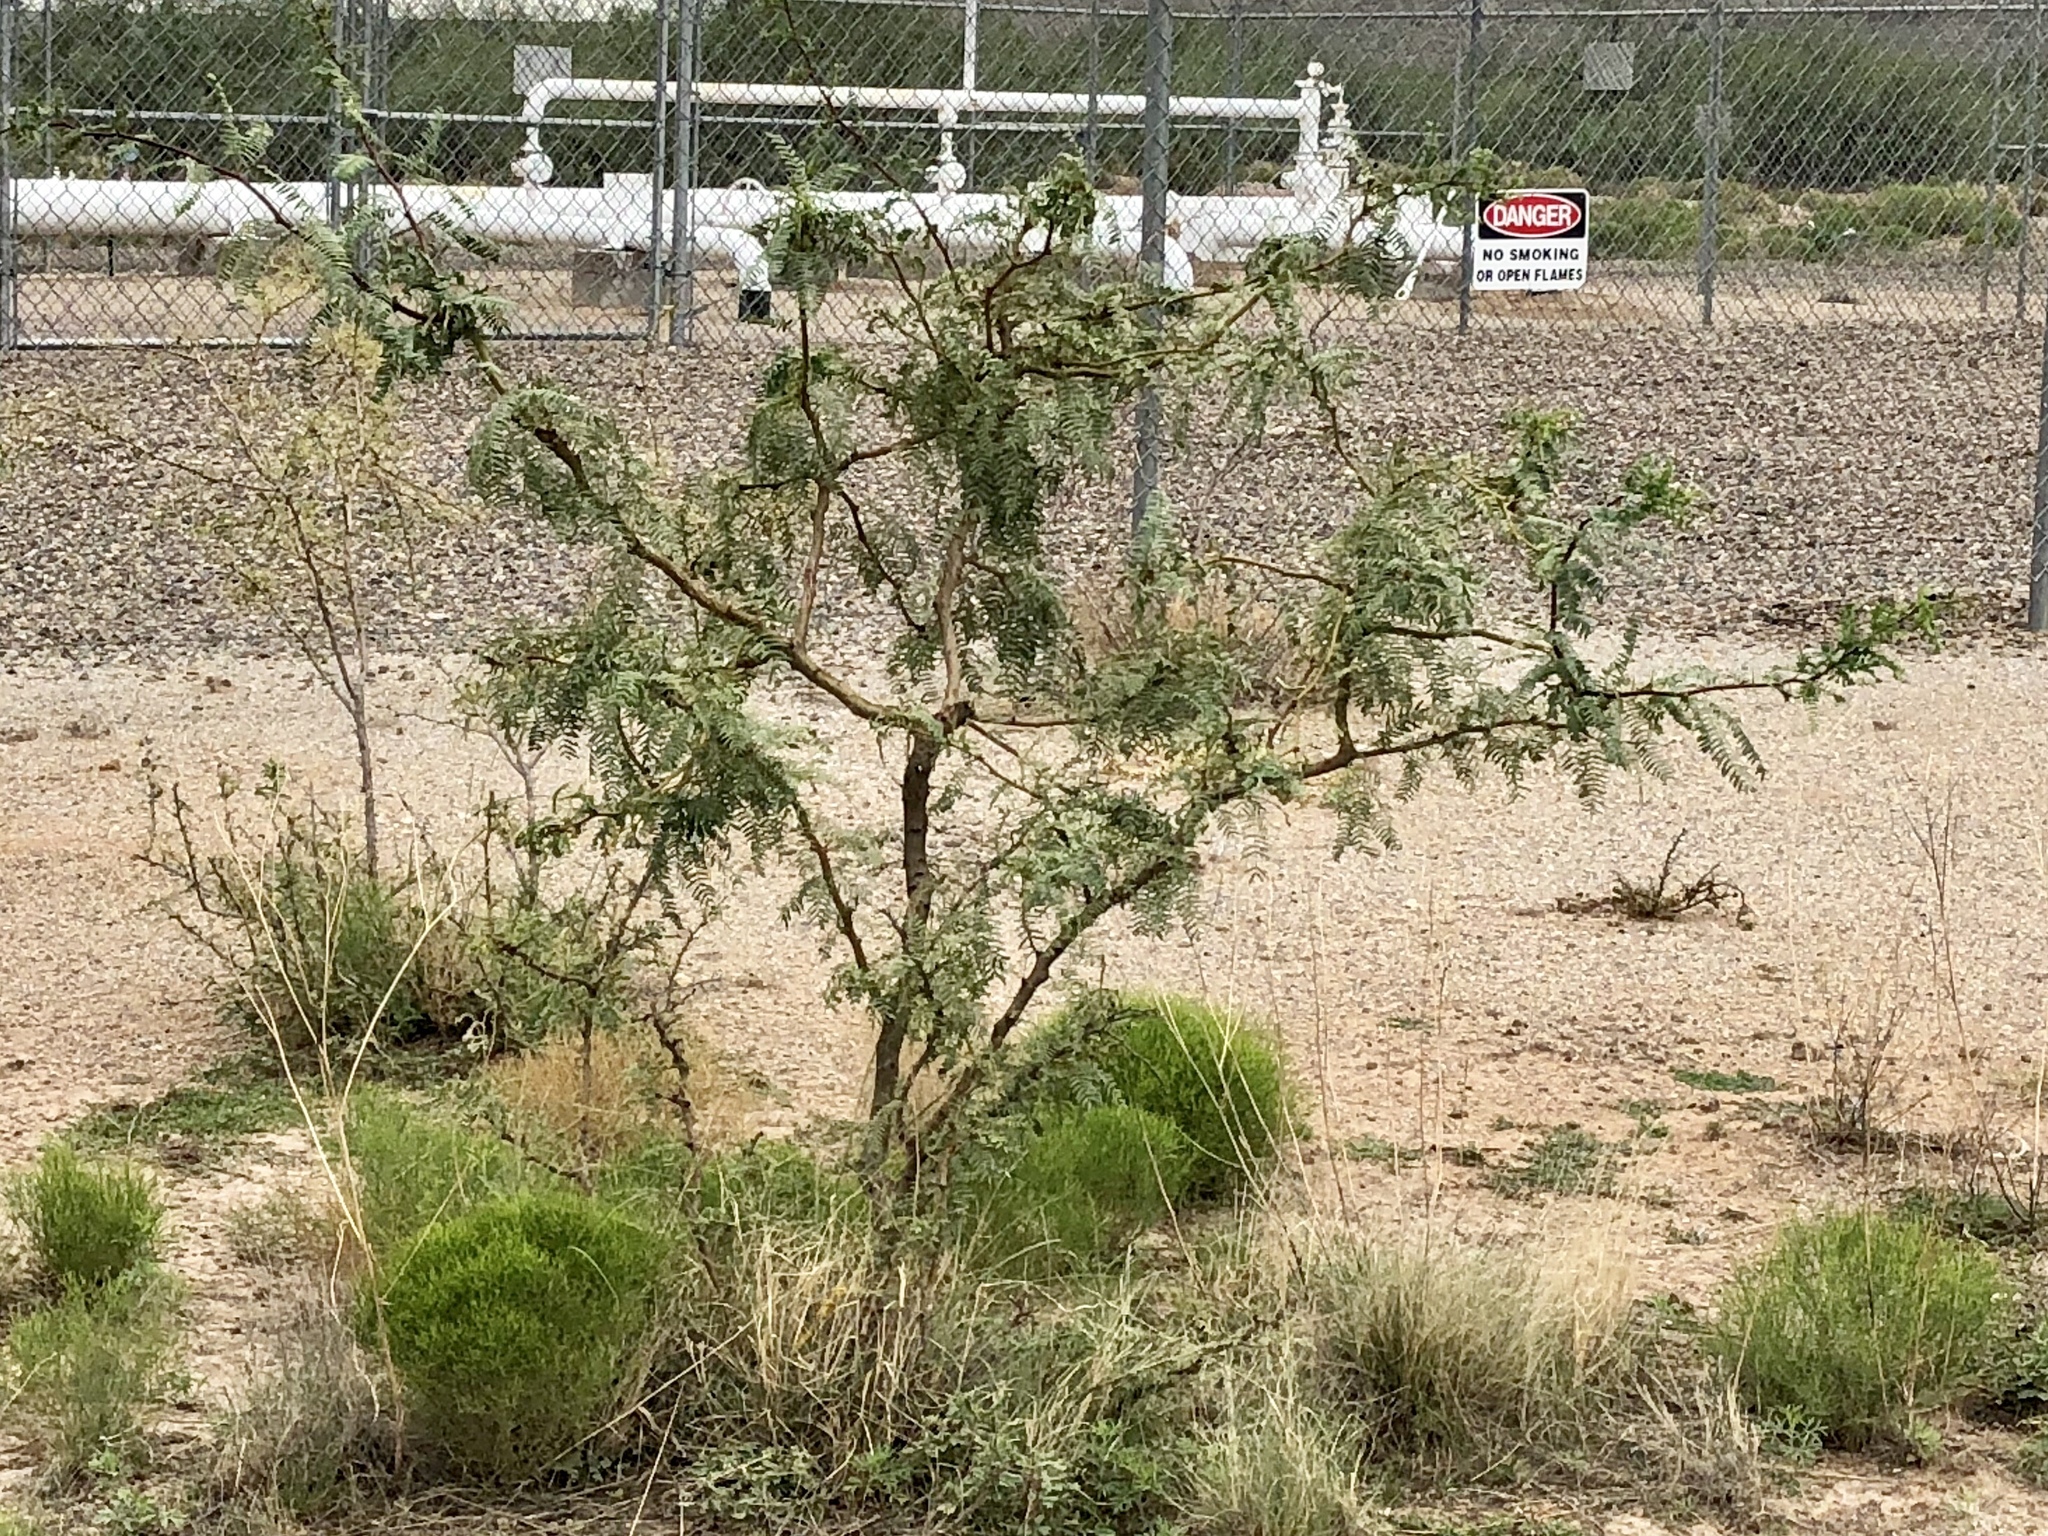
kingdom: Plantae
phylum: Tracheophyta
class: Magnoliopsida
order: Fabales
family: Fabaceae
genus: Prosopis
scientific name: Prosopis glandulosa
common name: Honey mesquite
